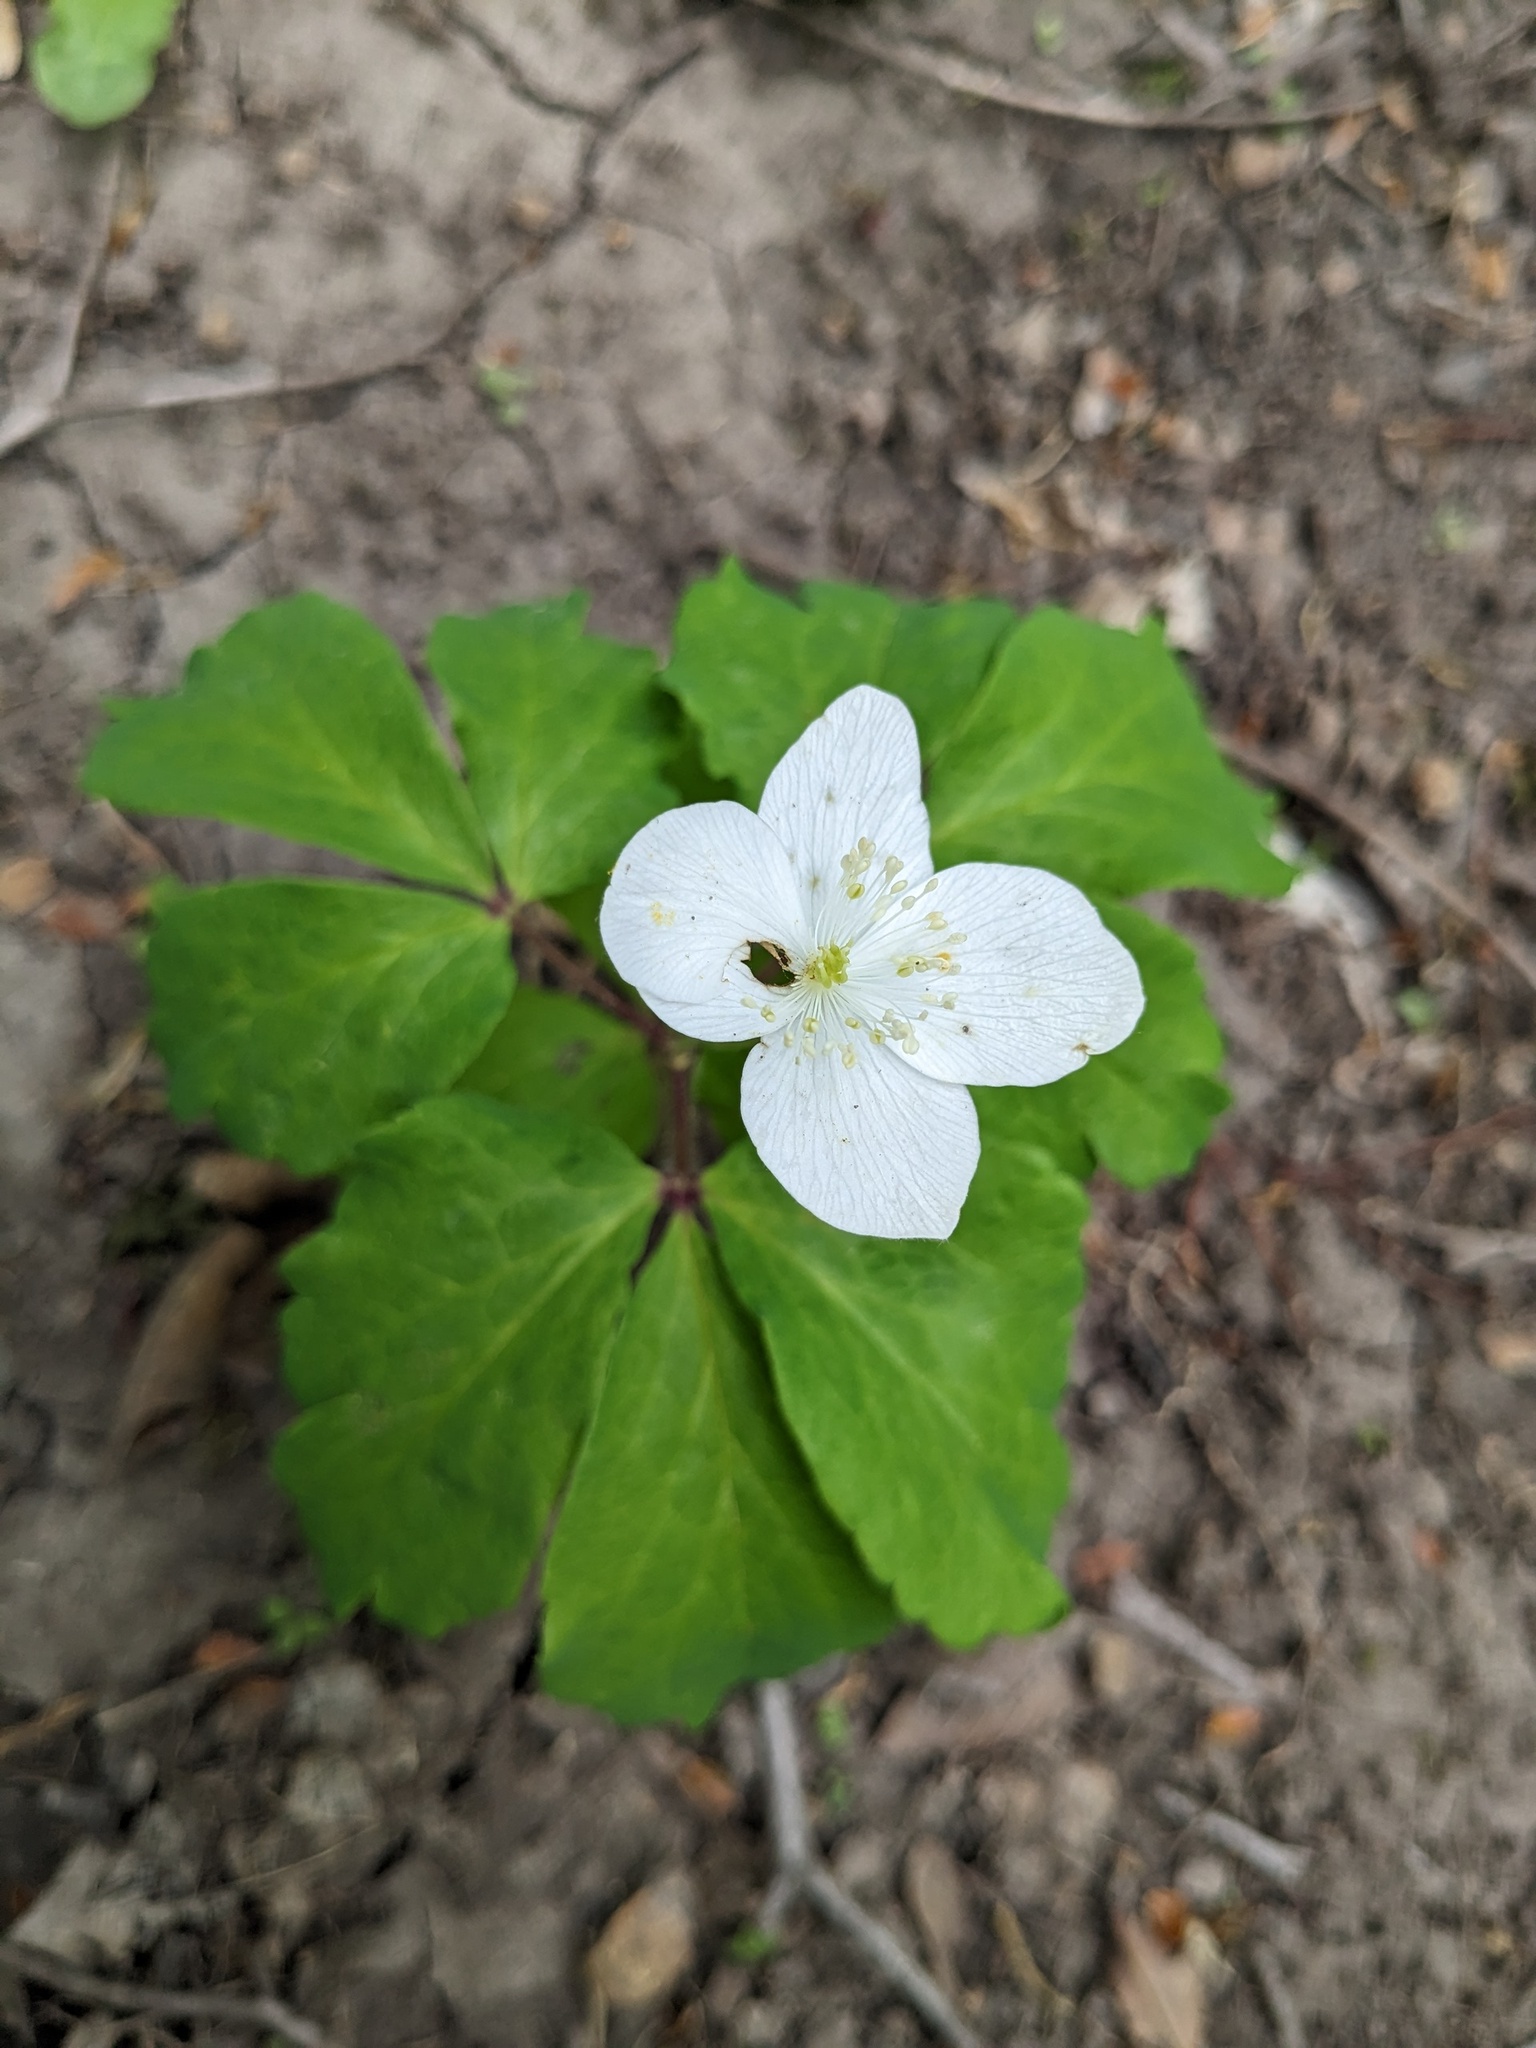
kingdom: Plantae
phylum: Tracheophyta
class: Magnoliopsida
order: Ranunculales
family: Ranunculaceae
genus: Anemone
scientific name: Anemone udensis
